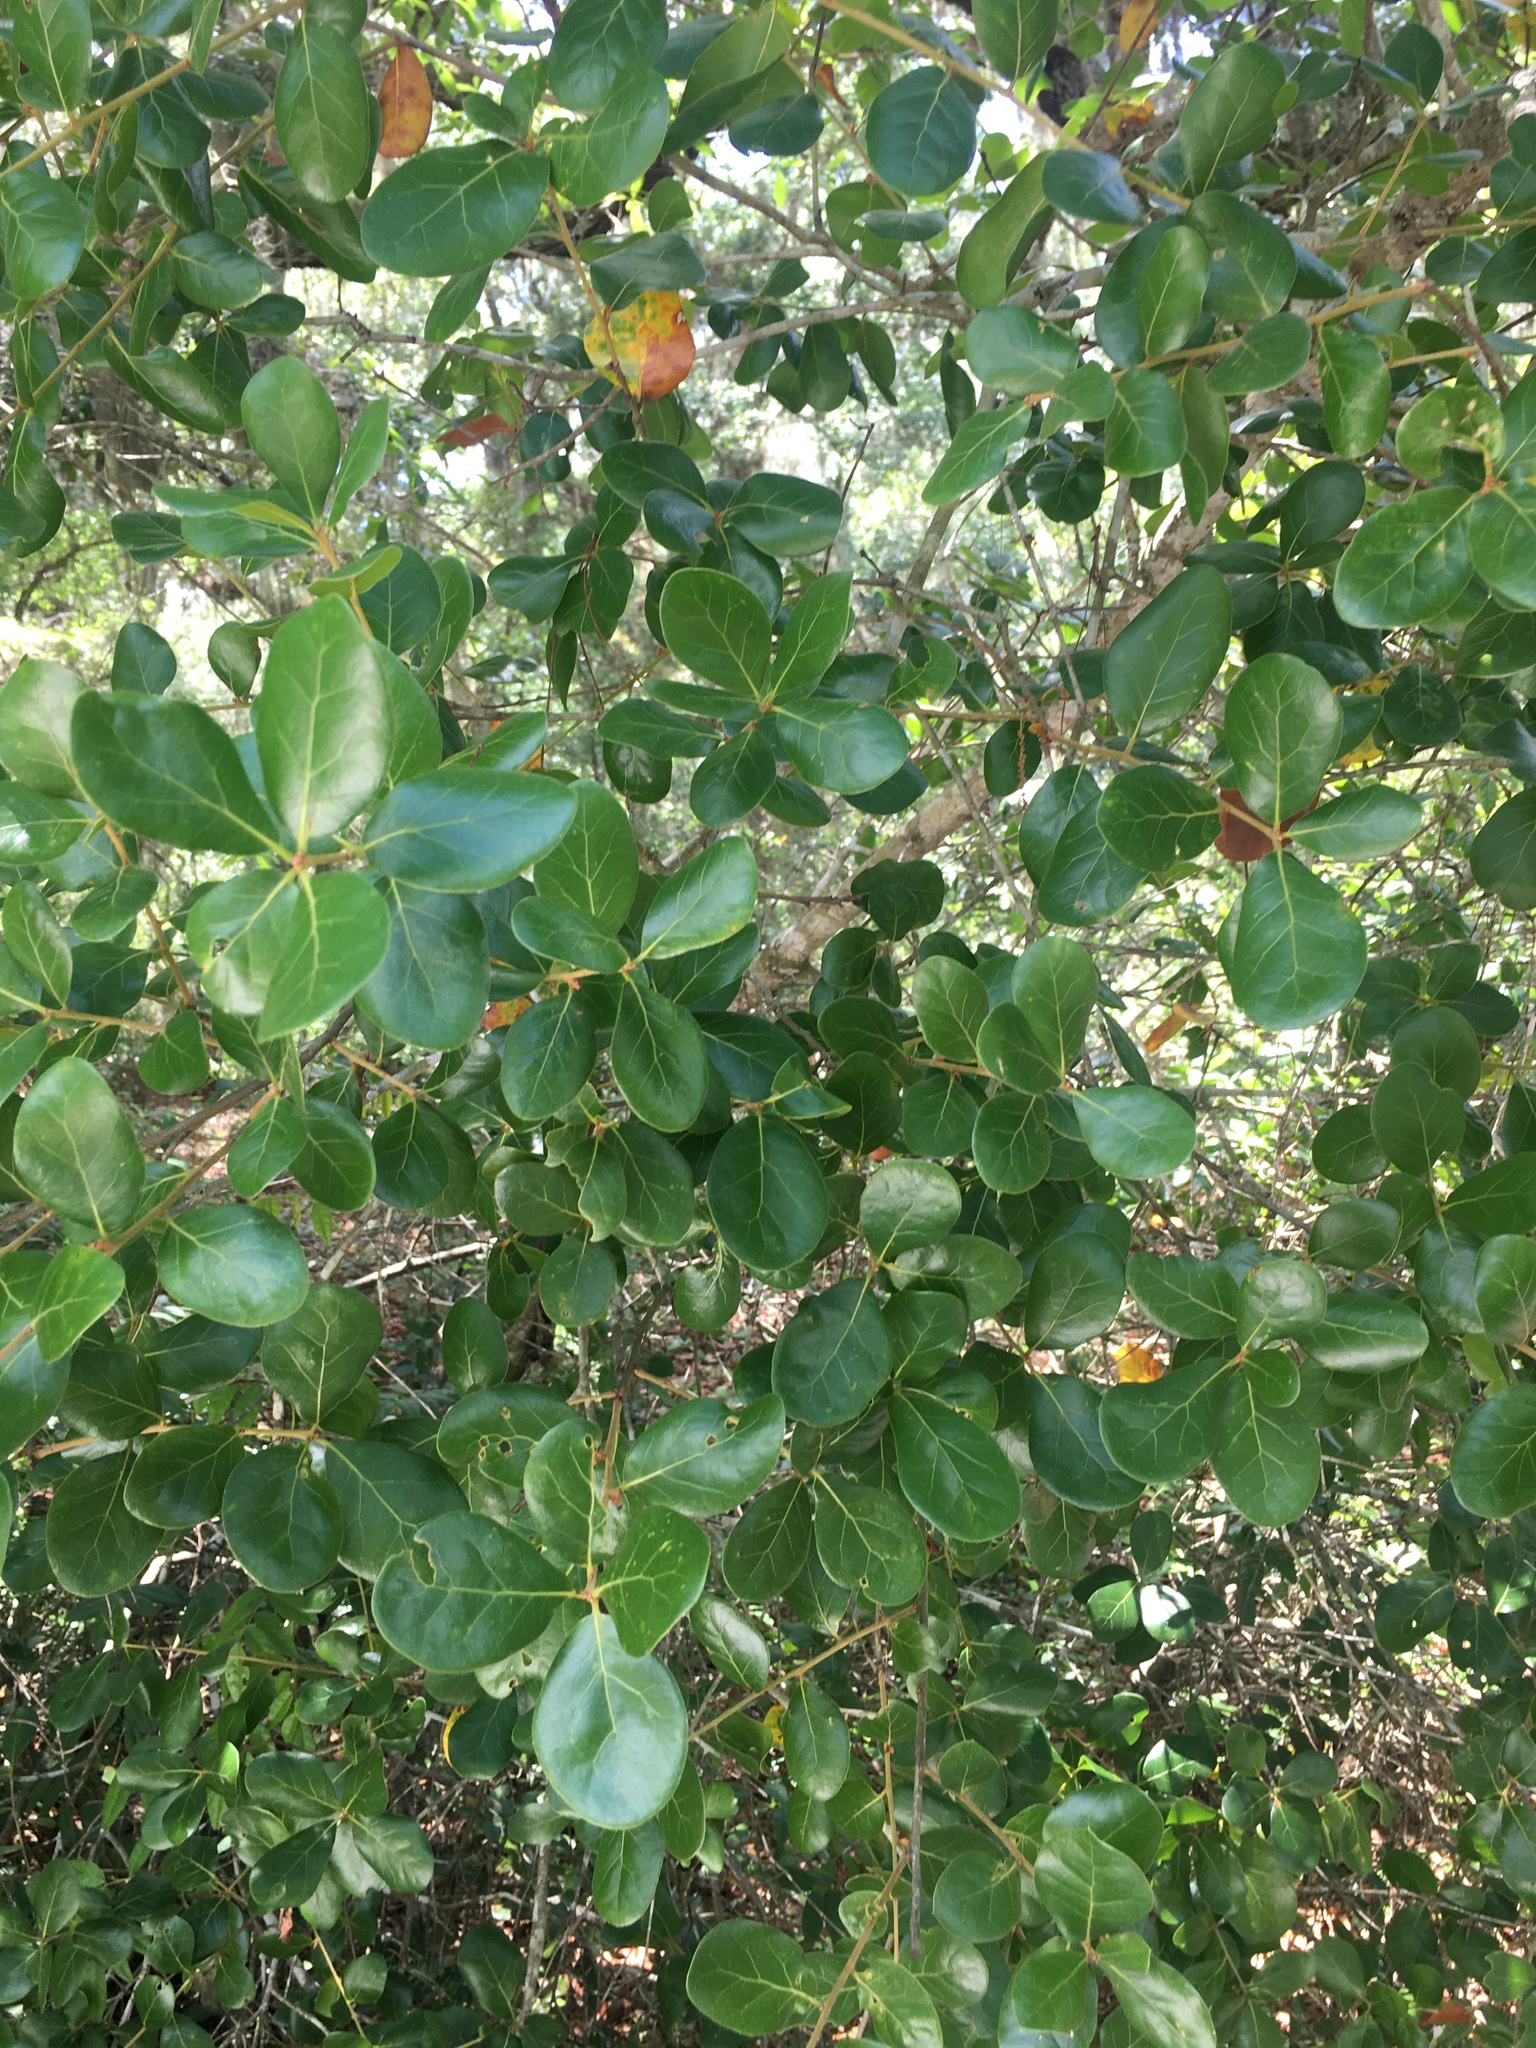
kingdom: Plantae
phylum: Tracheophyta
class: Magnoliopsida
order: Fagales
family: Fagaceae
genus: Quercus
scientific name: Quercus myrtifolia
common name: Myrtle oak
